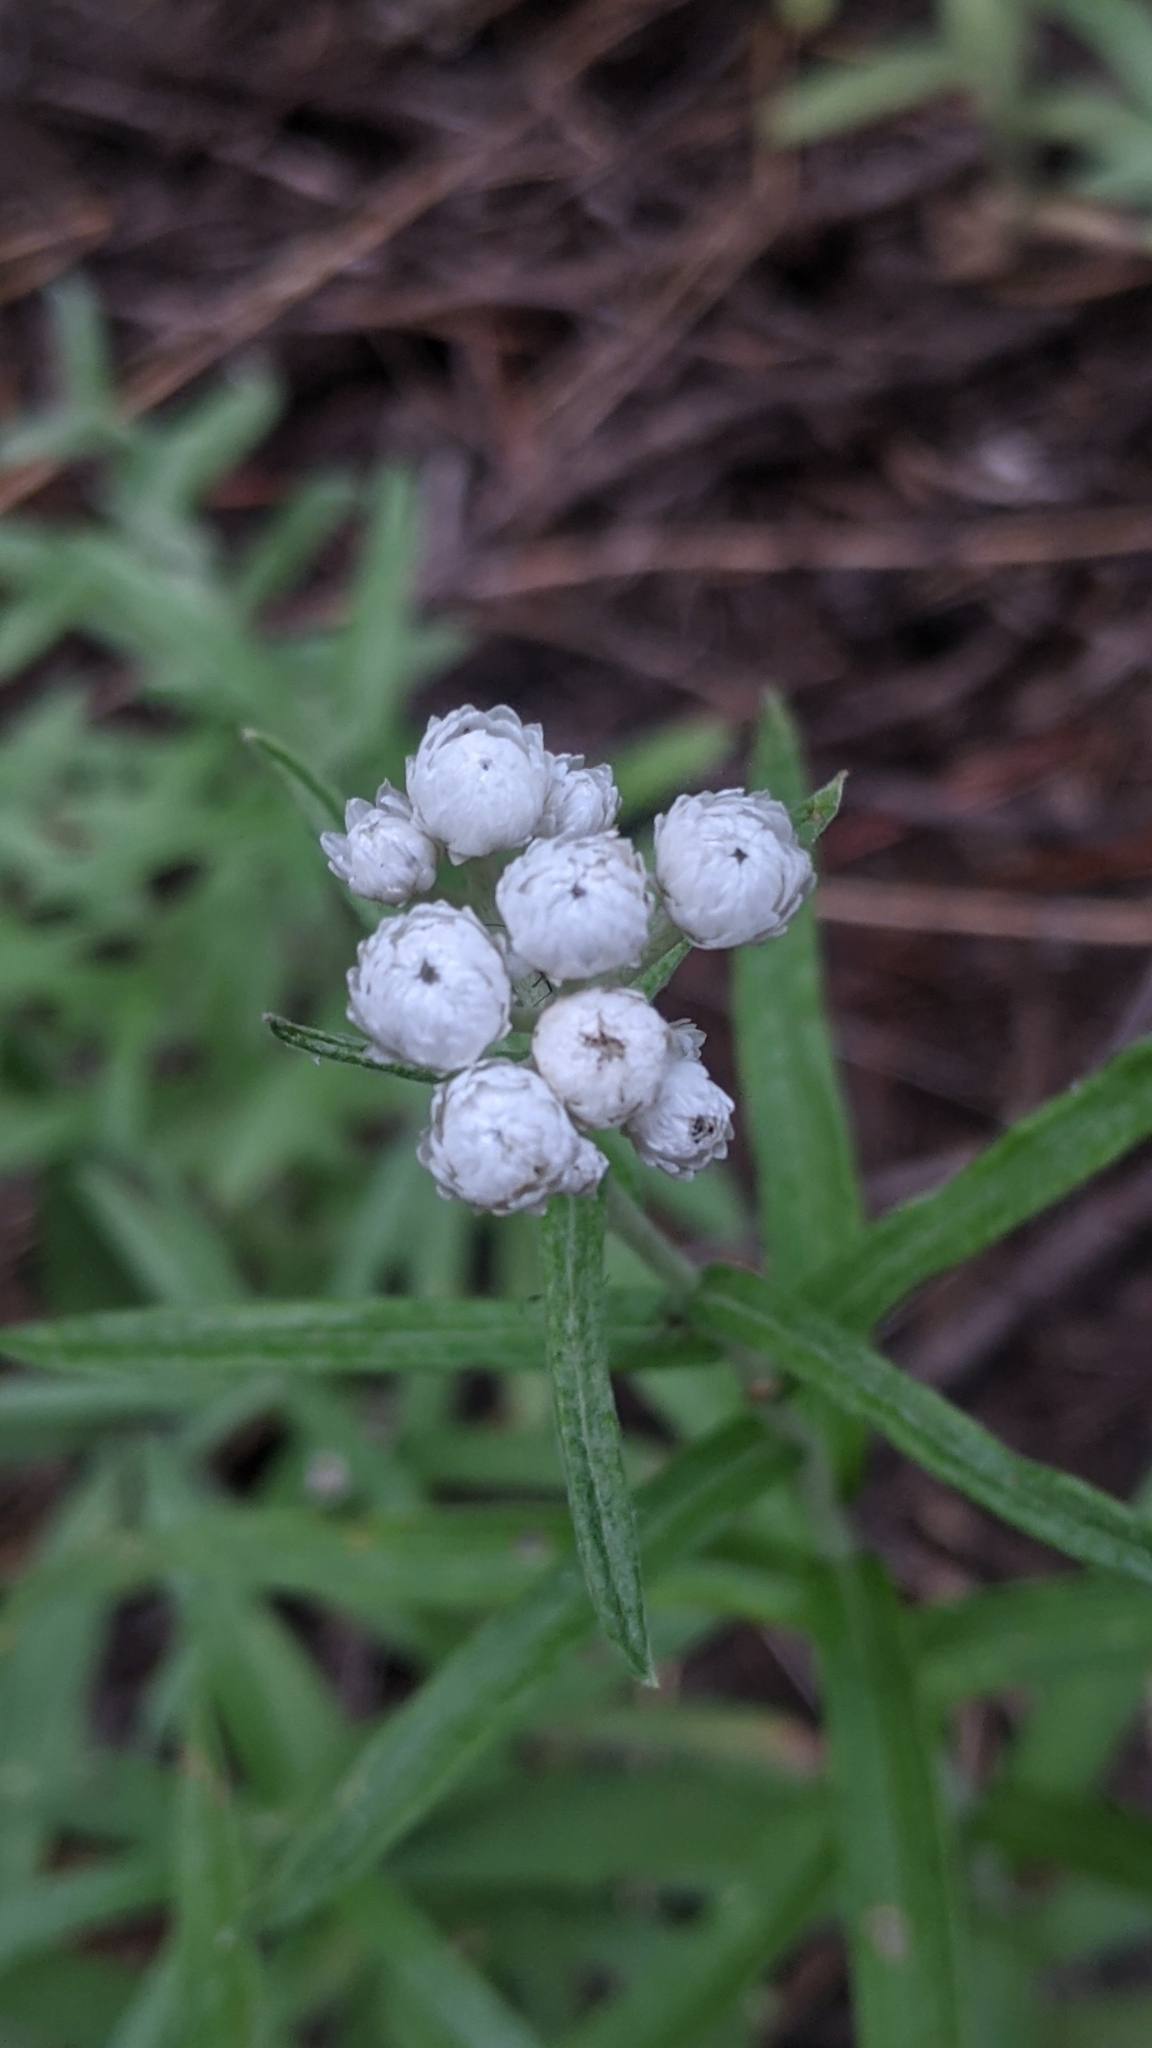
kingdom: Plantae
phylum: Tracheophyta
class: Magnoliopsida
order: Asterales
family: Asteraceae
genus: Anaphalis
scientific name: Anaphalis margaritacea
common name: Pearly everlasting
